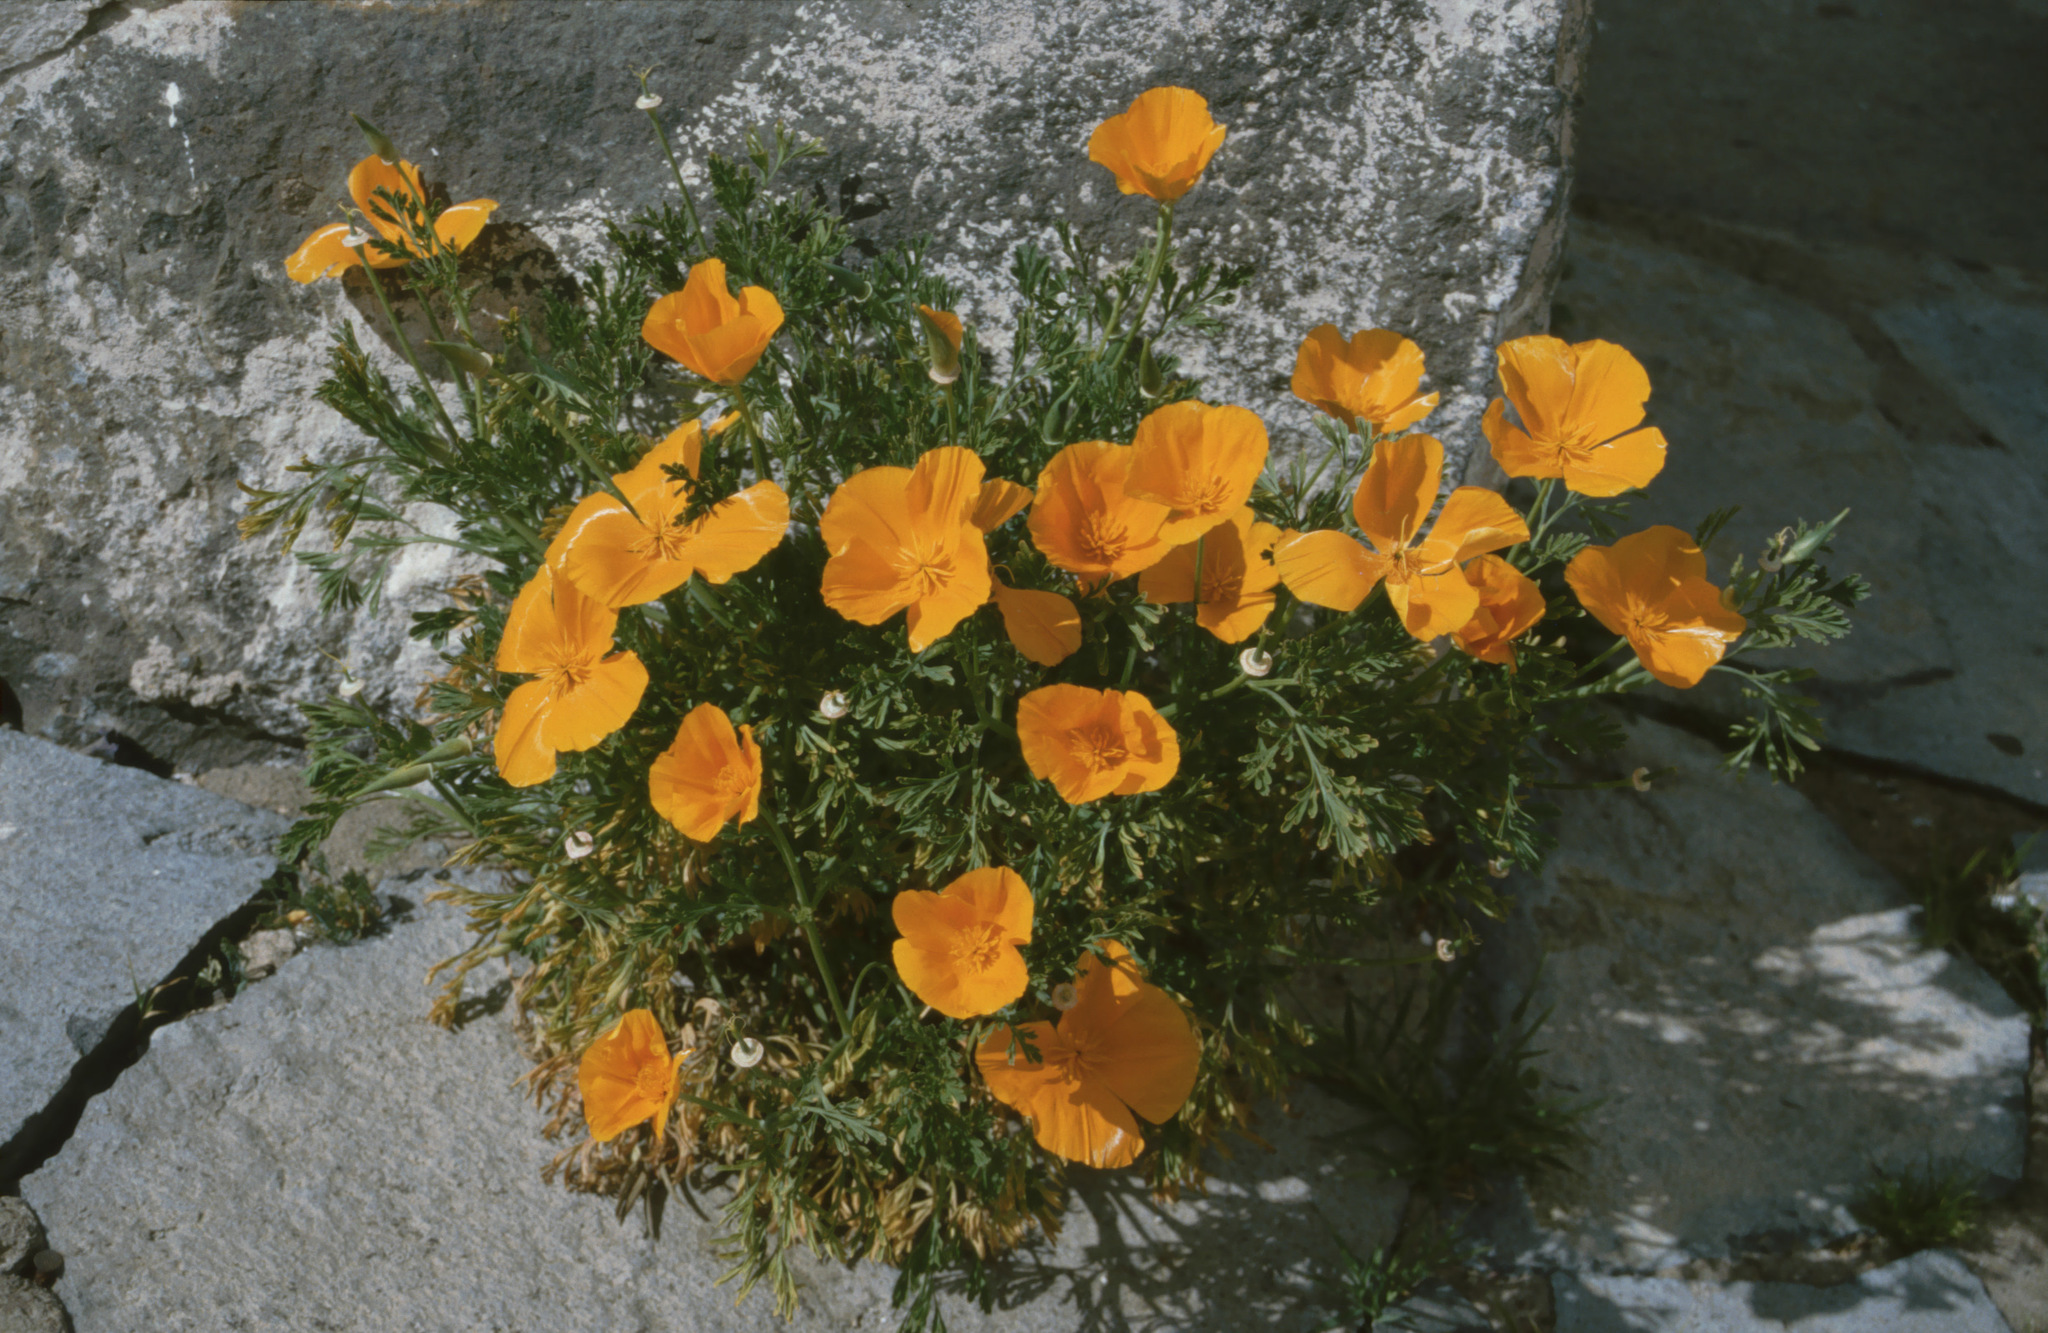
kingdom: Plantae
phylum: Tracheophyta
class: Magnoliopsida
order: Ranunculales
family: Papaveraceae
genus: Eschscholzia
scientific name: Eschscholzia californica
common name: California poppy
